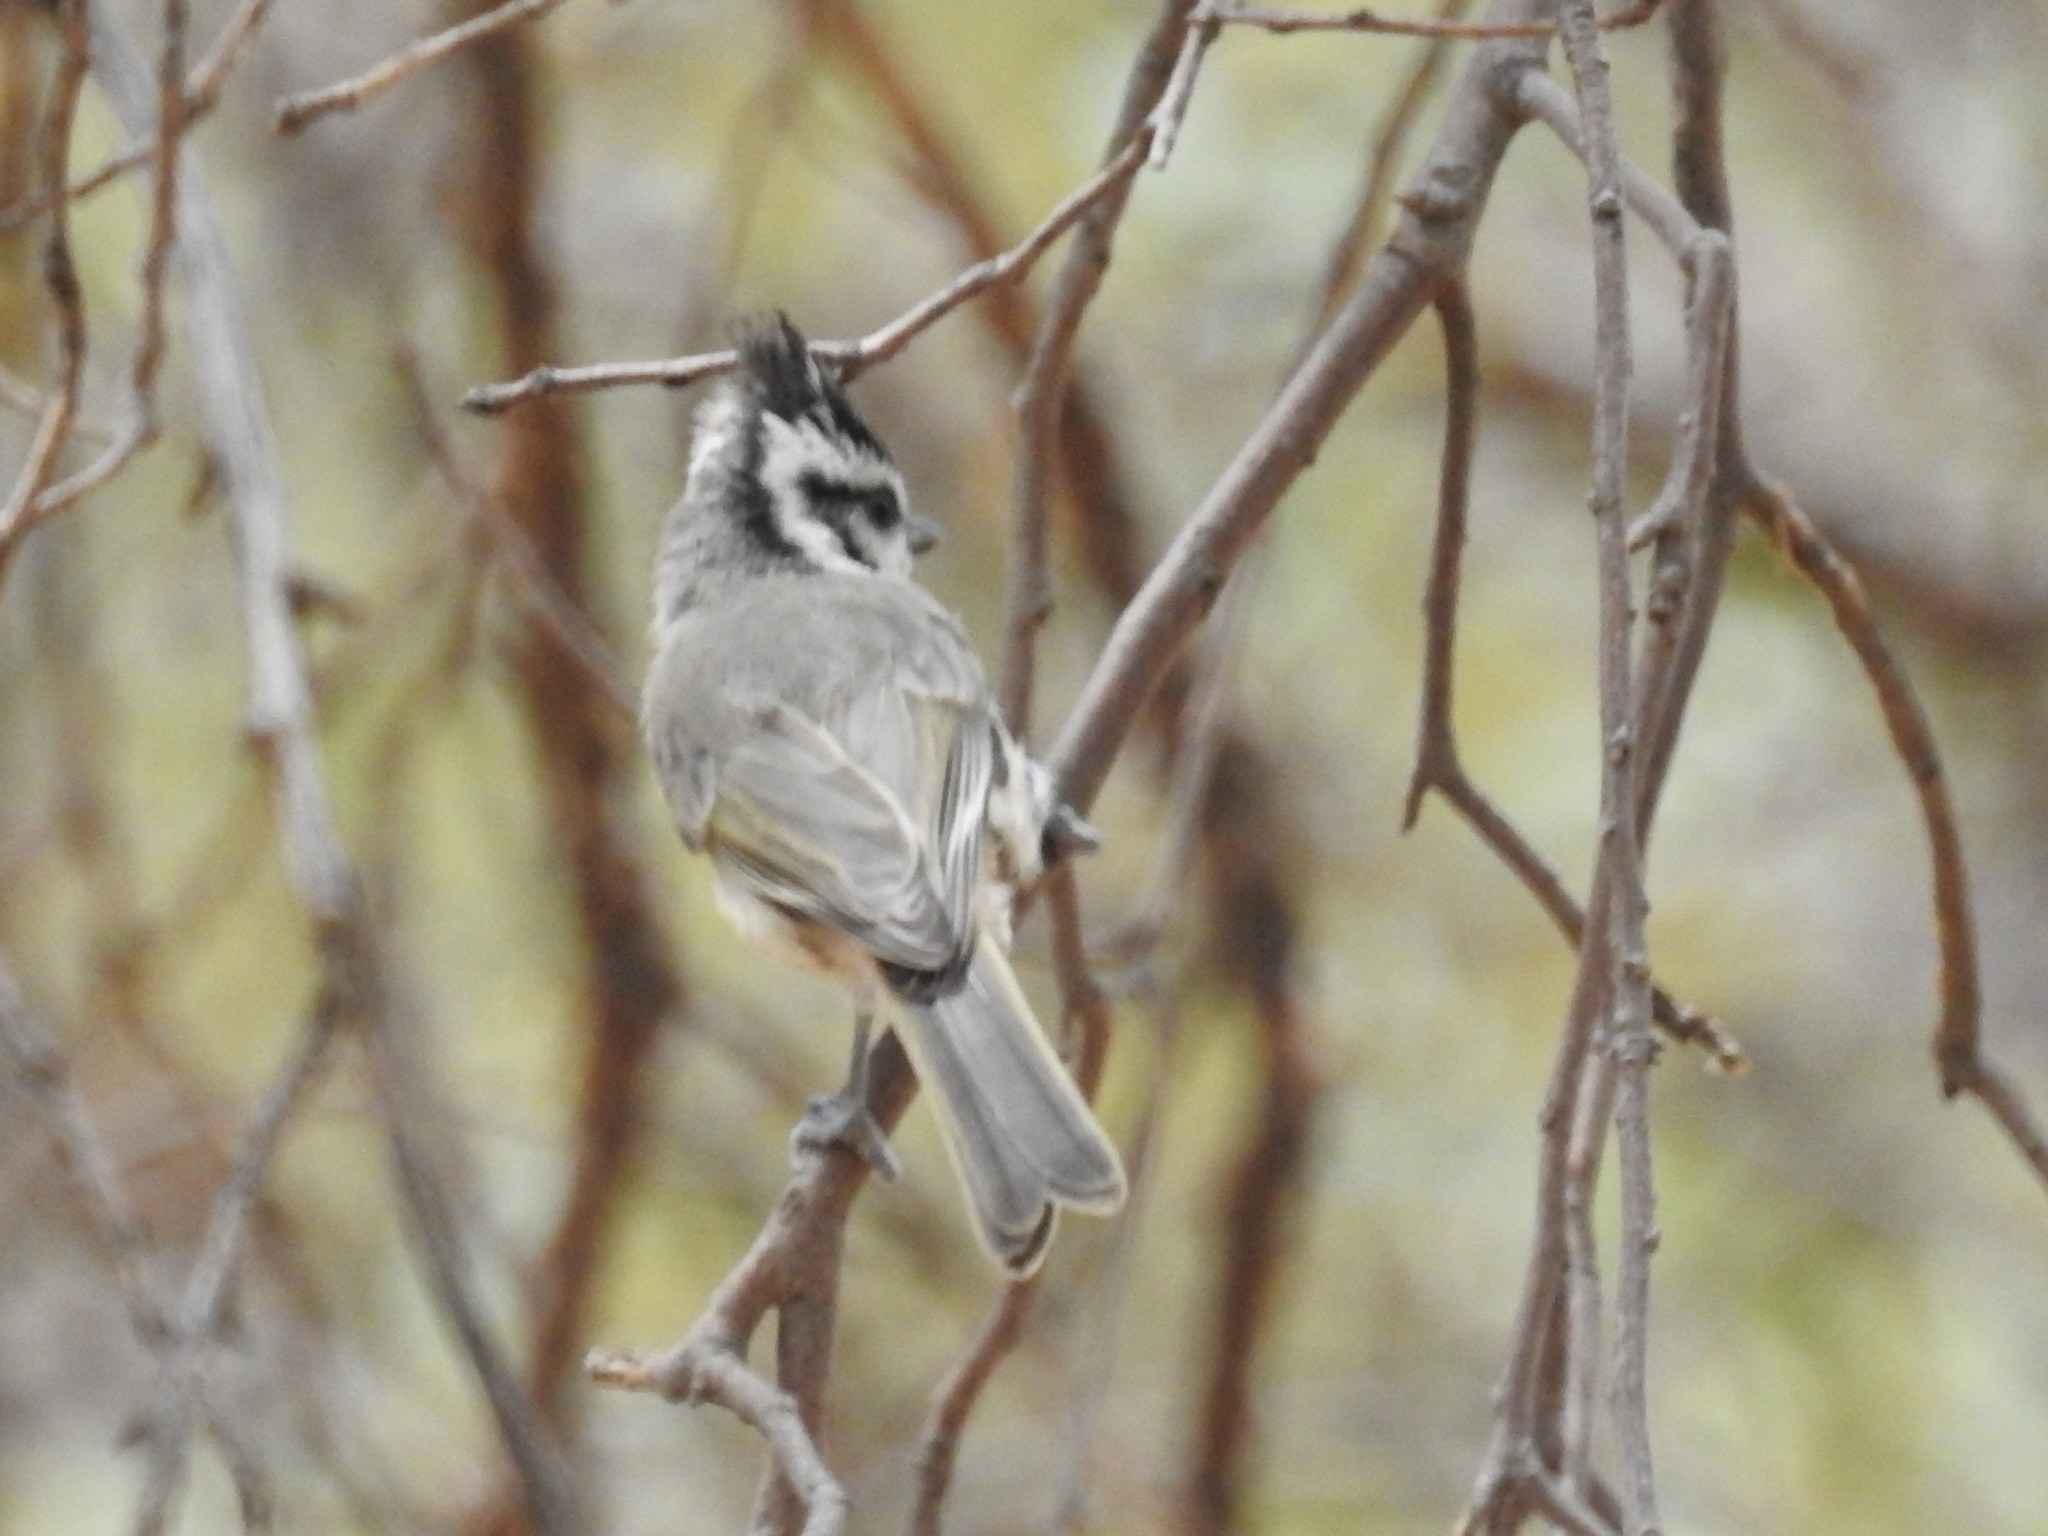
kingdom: Animalia
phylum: Chordata
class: Aves
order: Passeriformes
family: Paridae
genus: Baeolophus
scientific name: Baeolophus wollweberi
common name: Bridled titmouse
